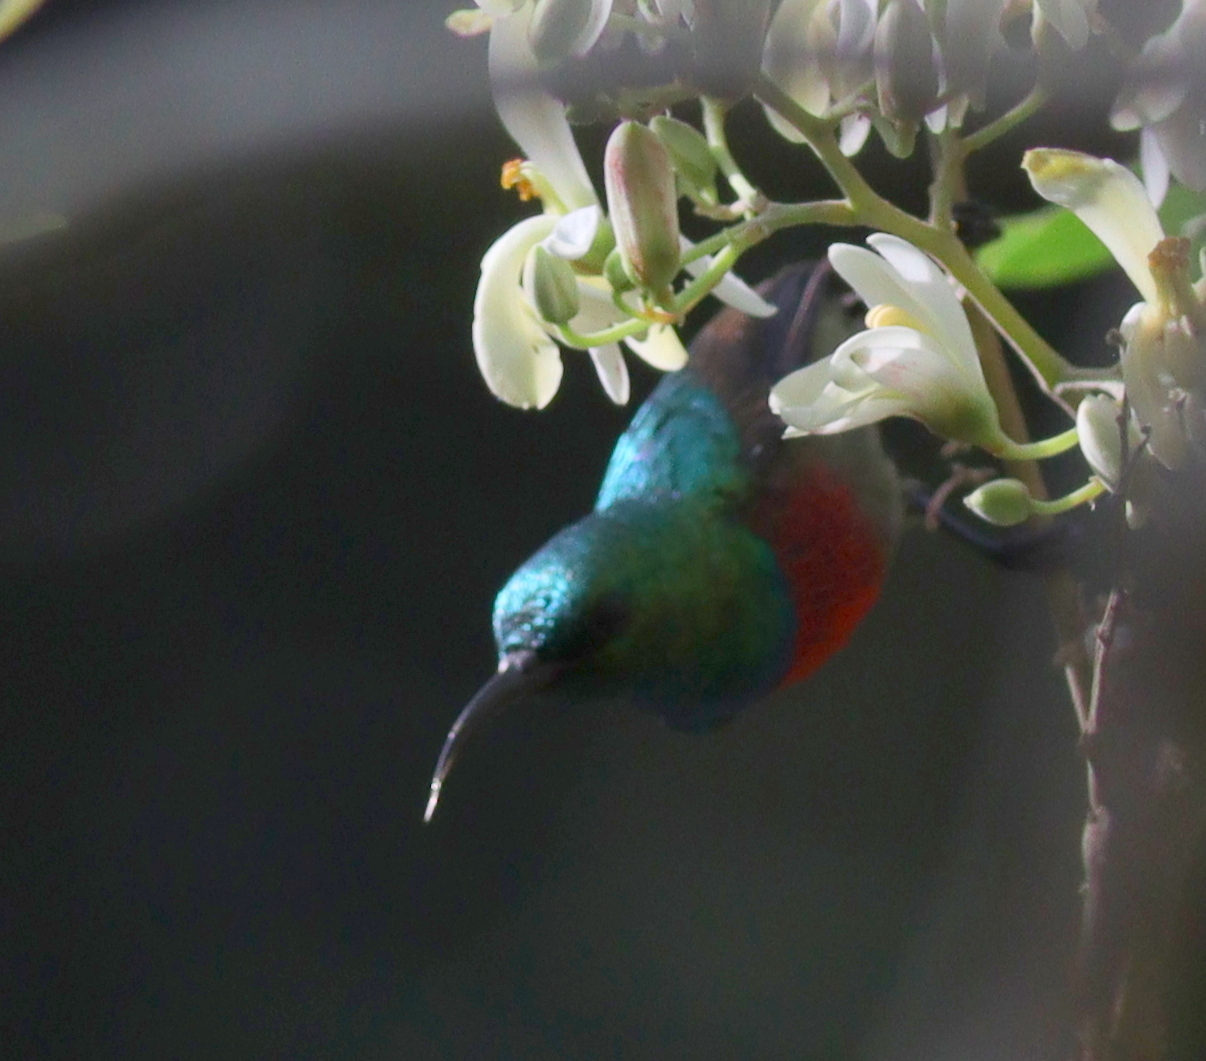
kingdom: Animalia
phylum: Chordata
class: Aves
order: Passeriformes
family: Nectariniidae
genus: Cinnyris
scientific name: Cinnyris chloropygius
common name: Olive-bellied sunbird
